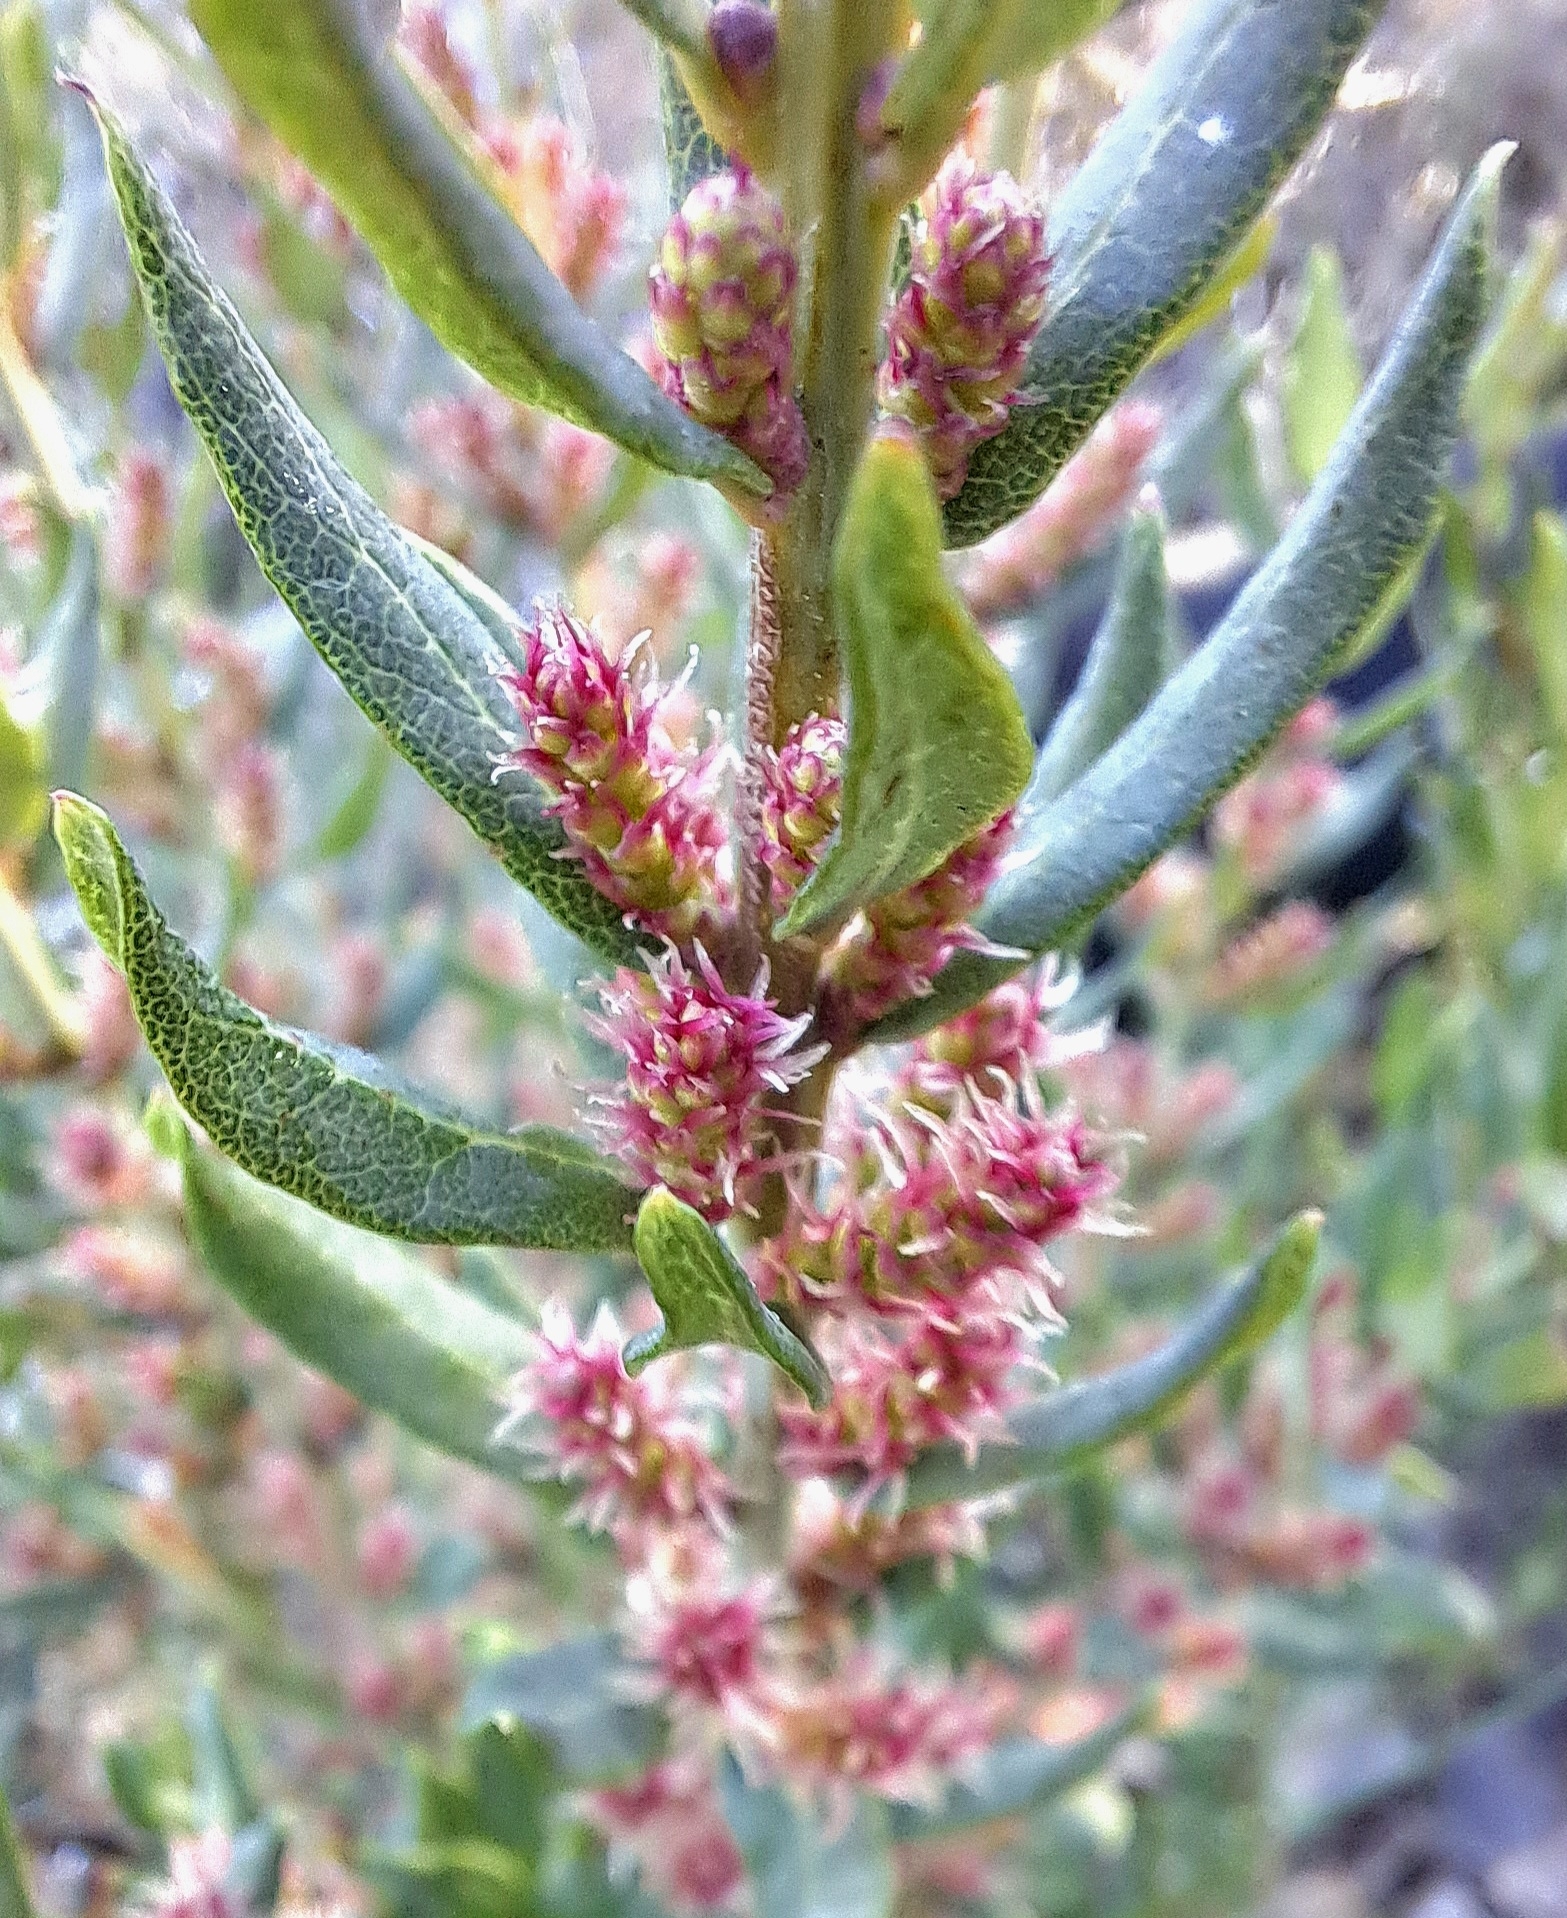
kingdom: Plantae
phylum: Tracheophyta
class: Magnoliopsida
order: Fagales
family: Myricaceae
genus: Morella
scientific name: Morella humilis
